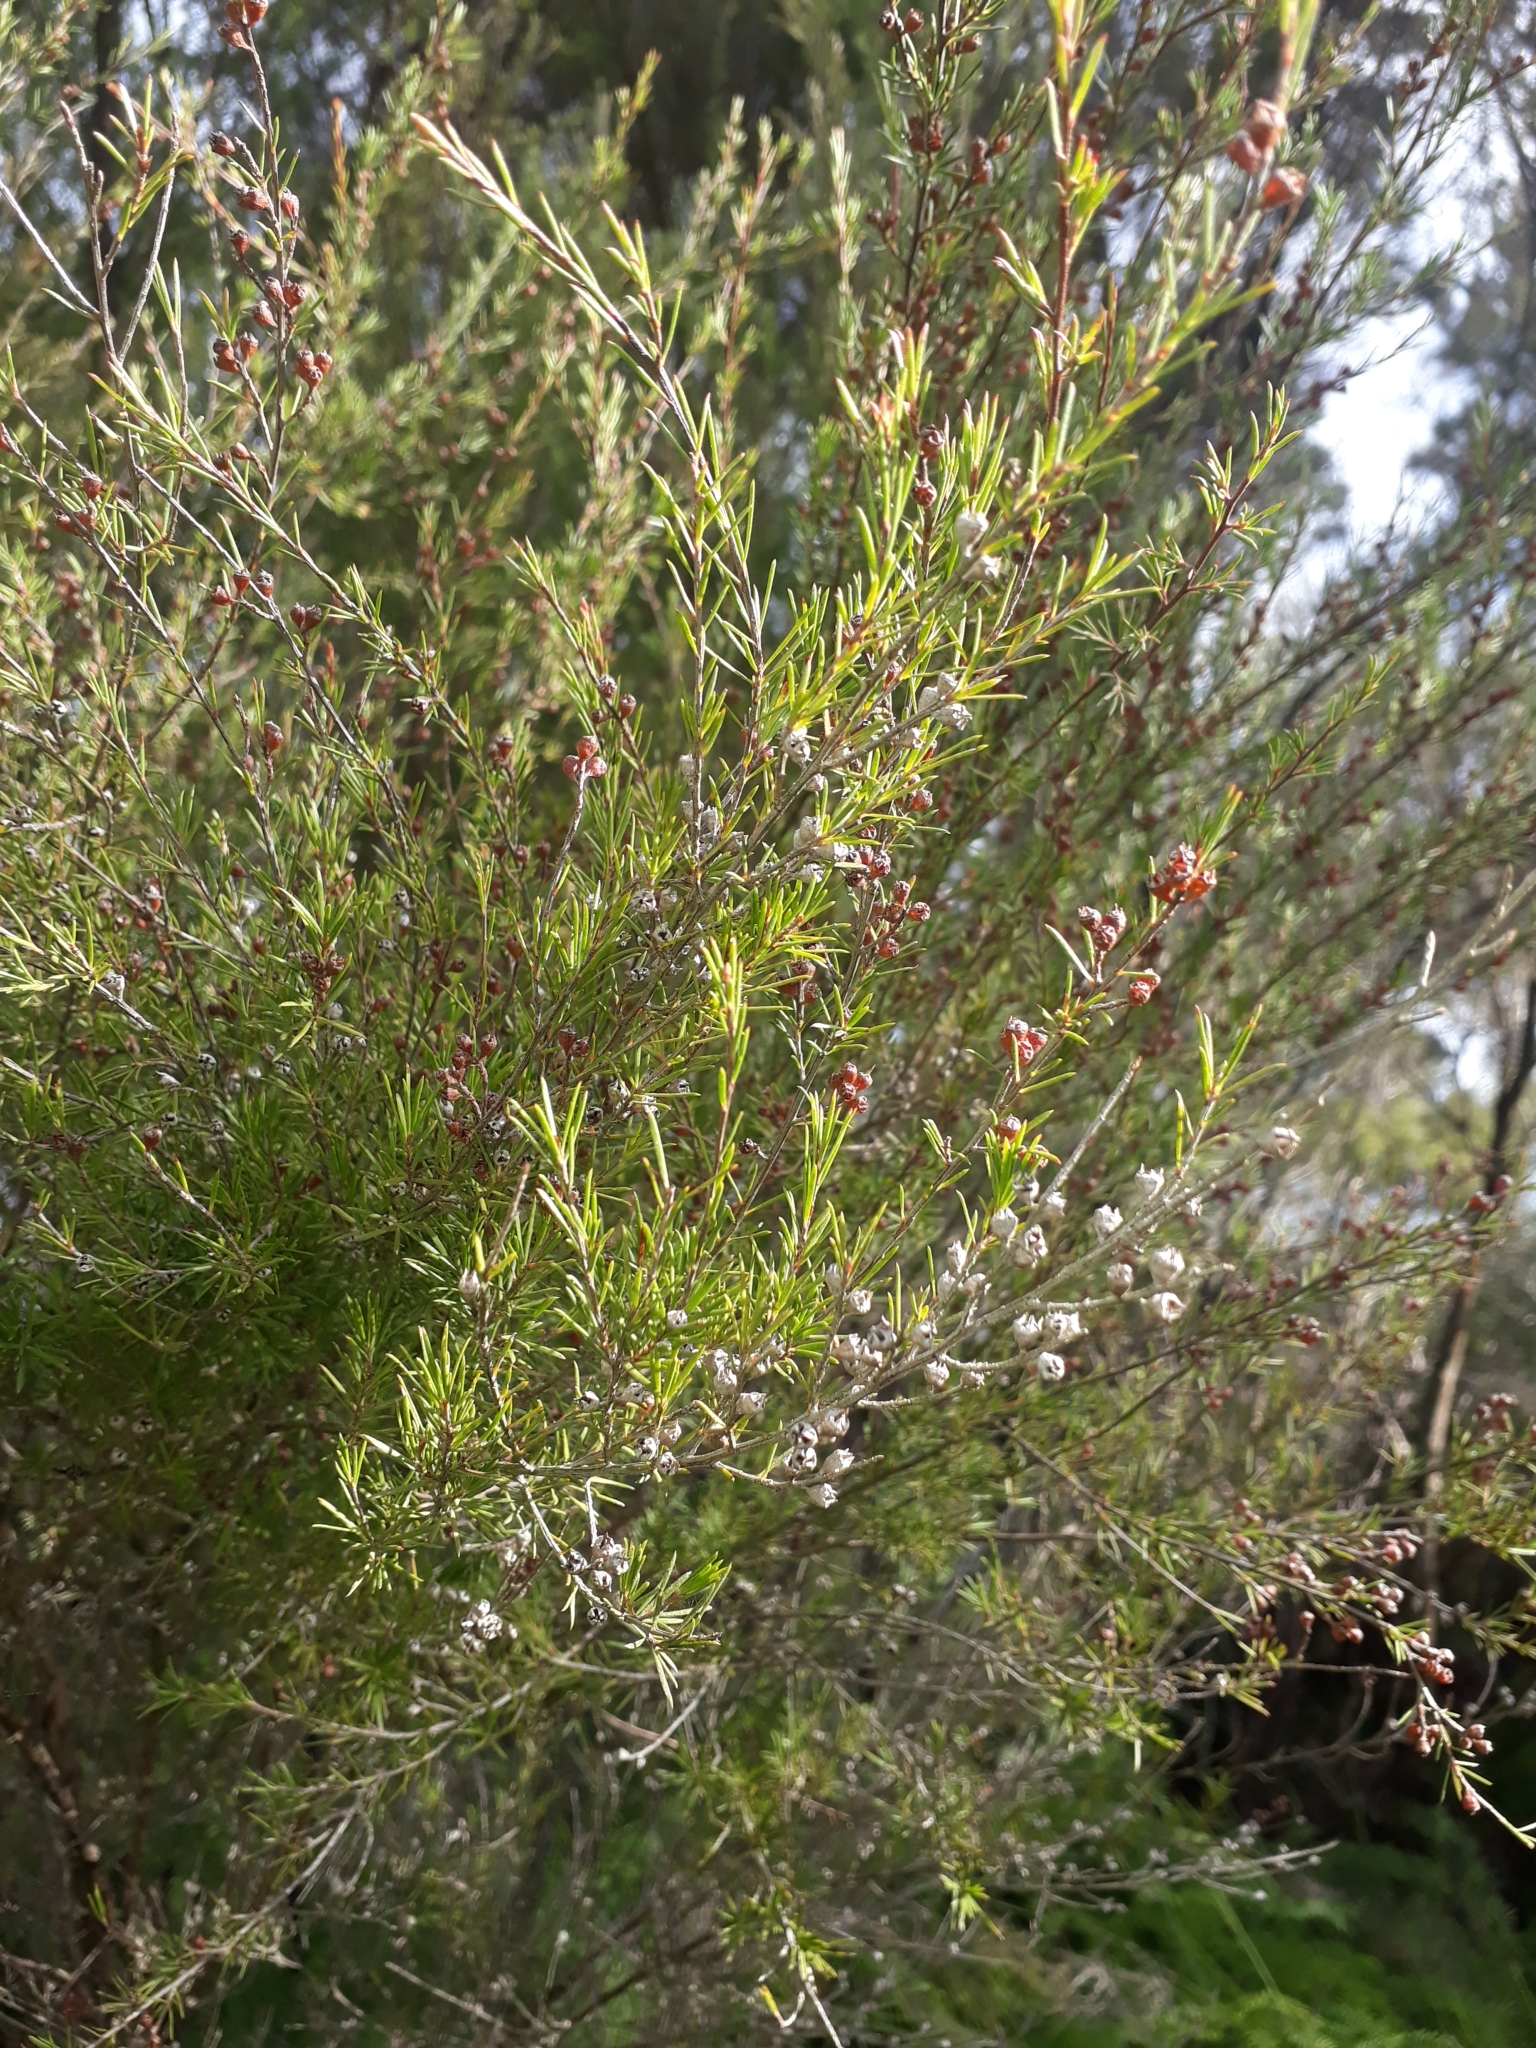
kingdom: Plantae
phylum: Tracheophyta
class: Magnoliopsida
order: Myrtales
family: Myrtaceae
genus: Kunzea
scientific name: Kunzea linearis
